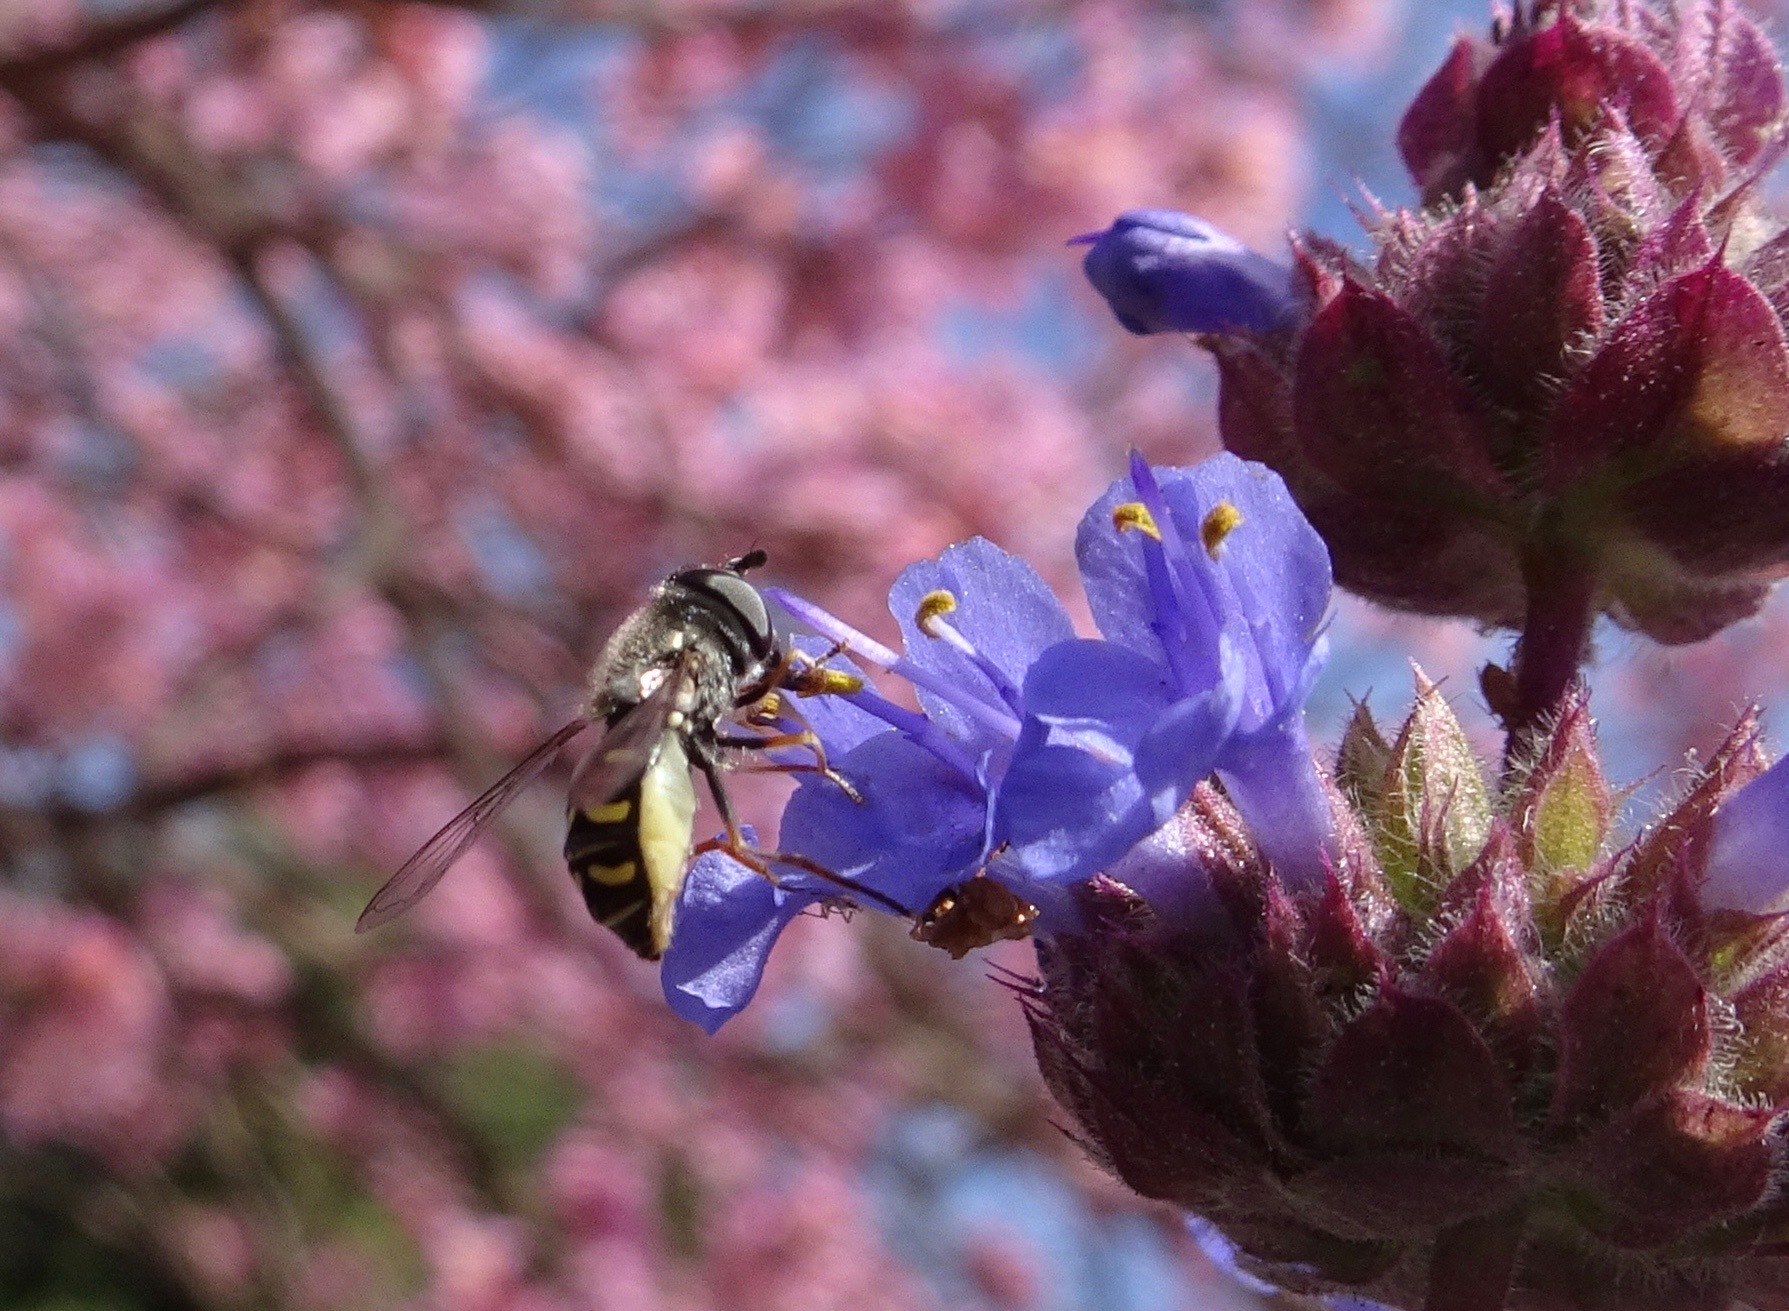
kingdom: Animalia
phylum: Arthropoda
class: Insecta
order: Diptera
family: Syrphidae
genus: Eupeodes
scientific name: Eupeodes volucris
